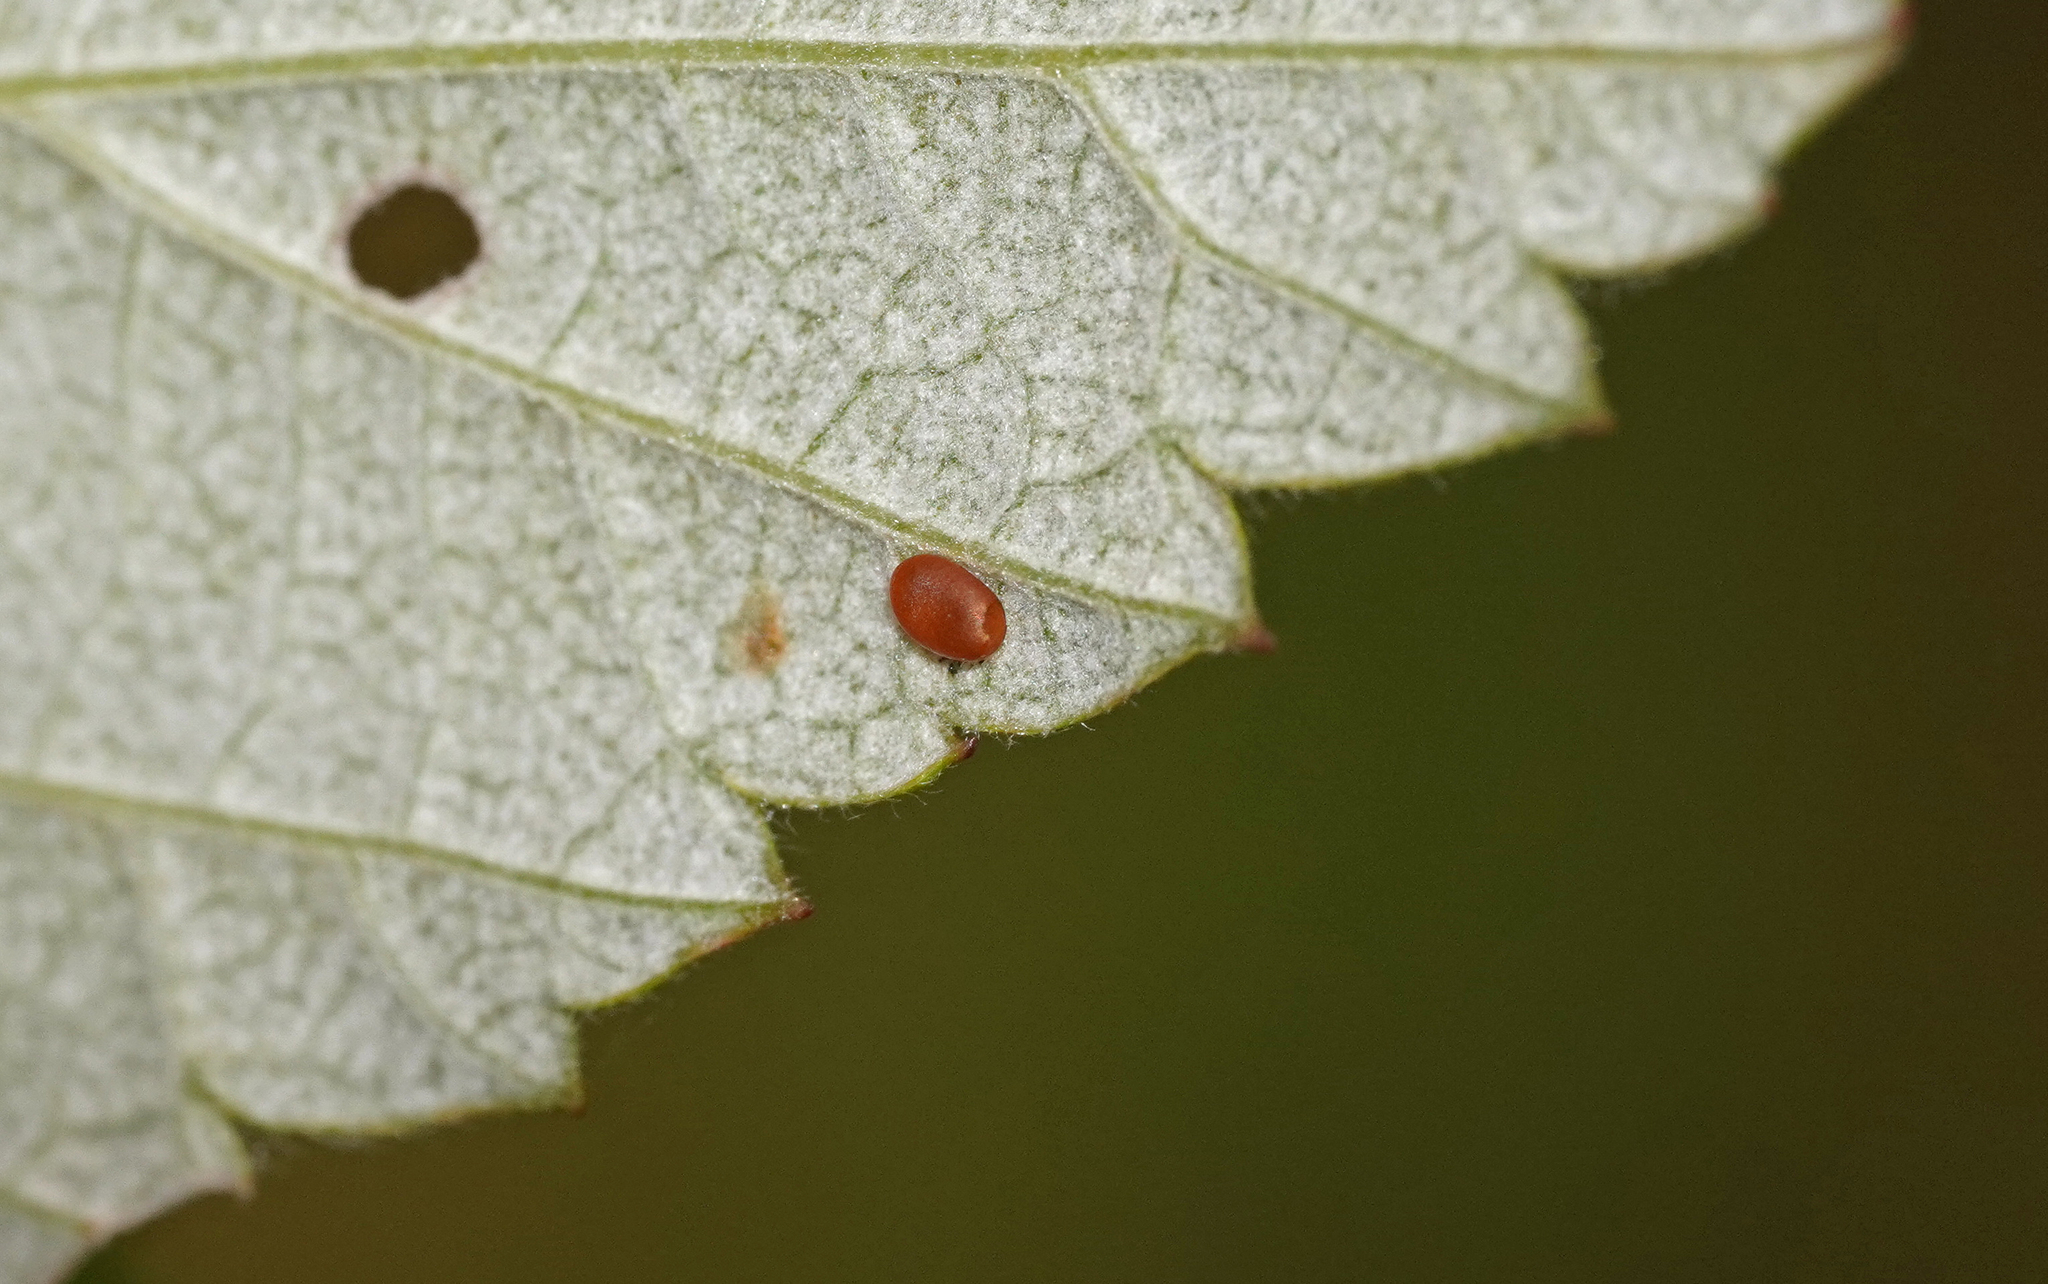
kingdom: Animalia
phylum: Arthropoda
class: Insecta
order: Lepidoptera
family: Sesiidae
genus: Pennisetia
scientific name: Pennisetia hylaeiformis
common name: Raspberry clearwing
